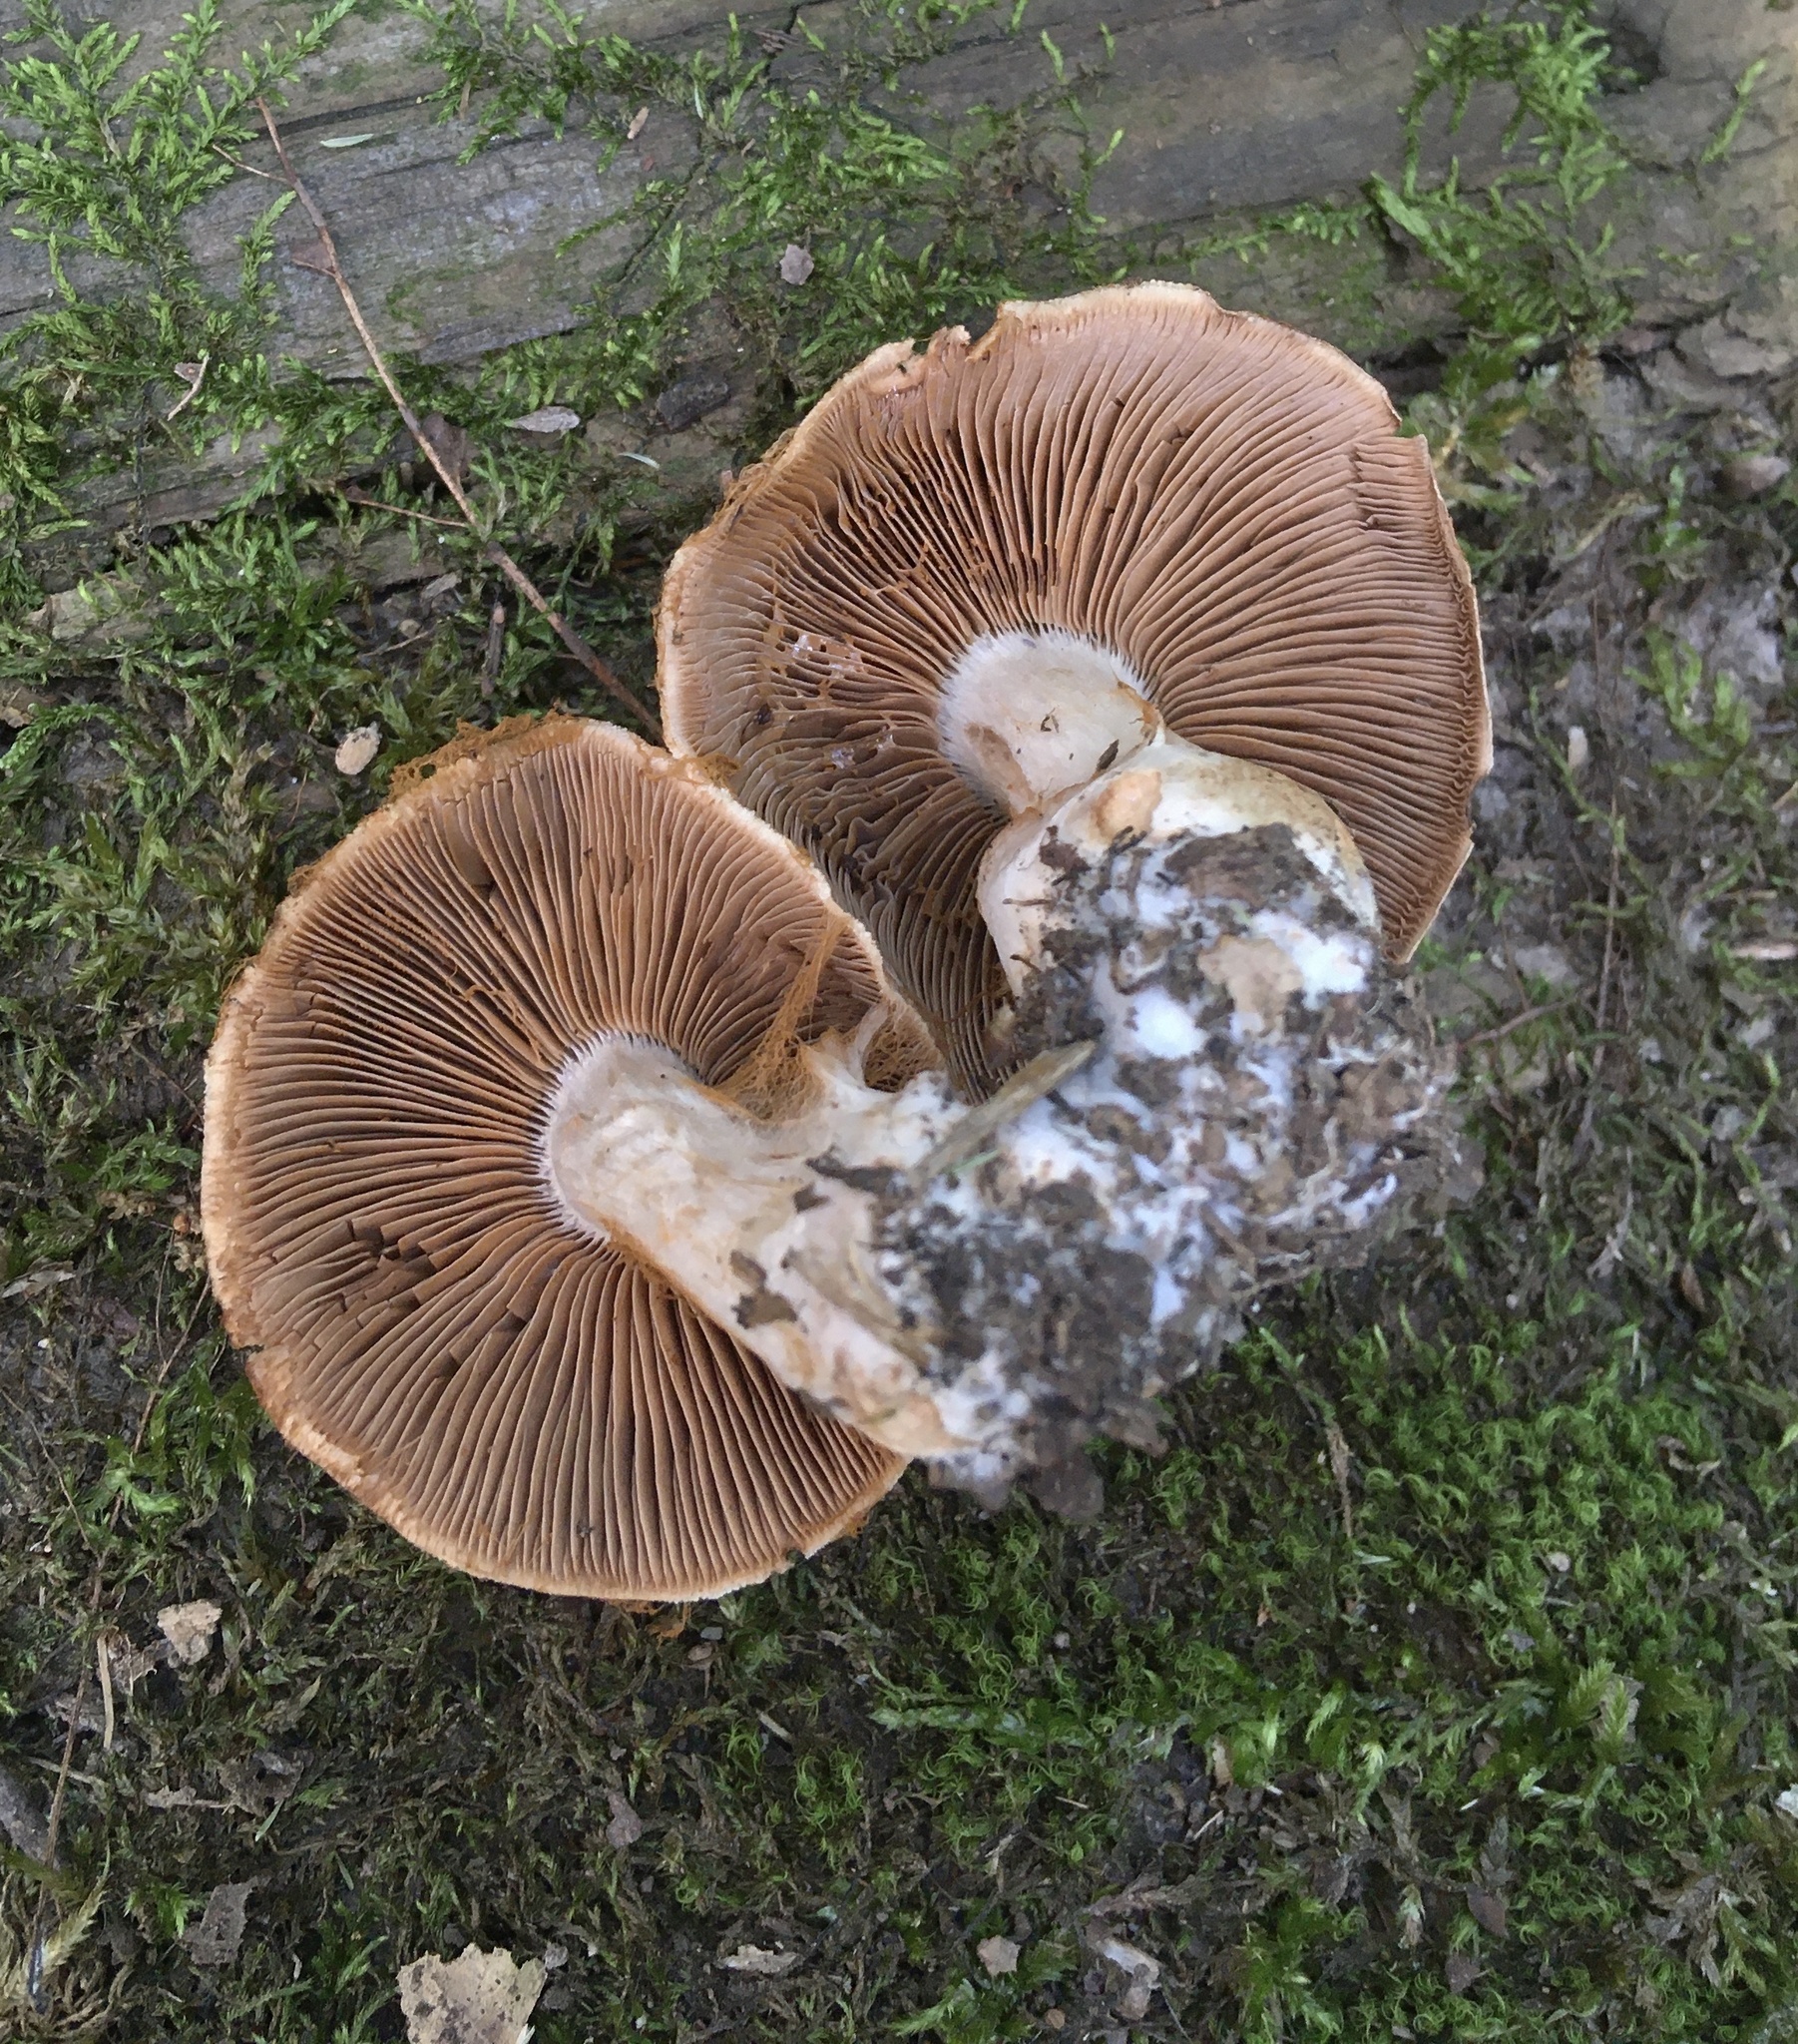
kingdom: Fungi
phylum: Basidiomycota
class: Agaricomycetes
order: Agaricales
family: Cortinariaceae
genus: Cortinarius
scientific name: Cortinarius quercophilus
